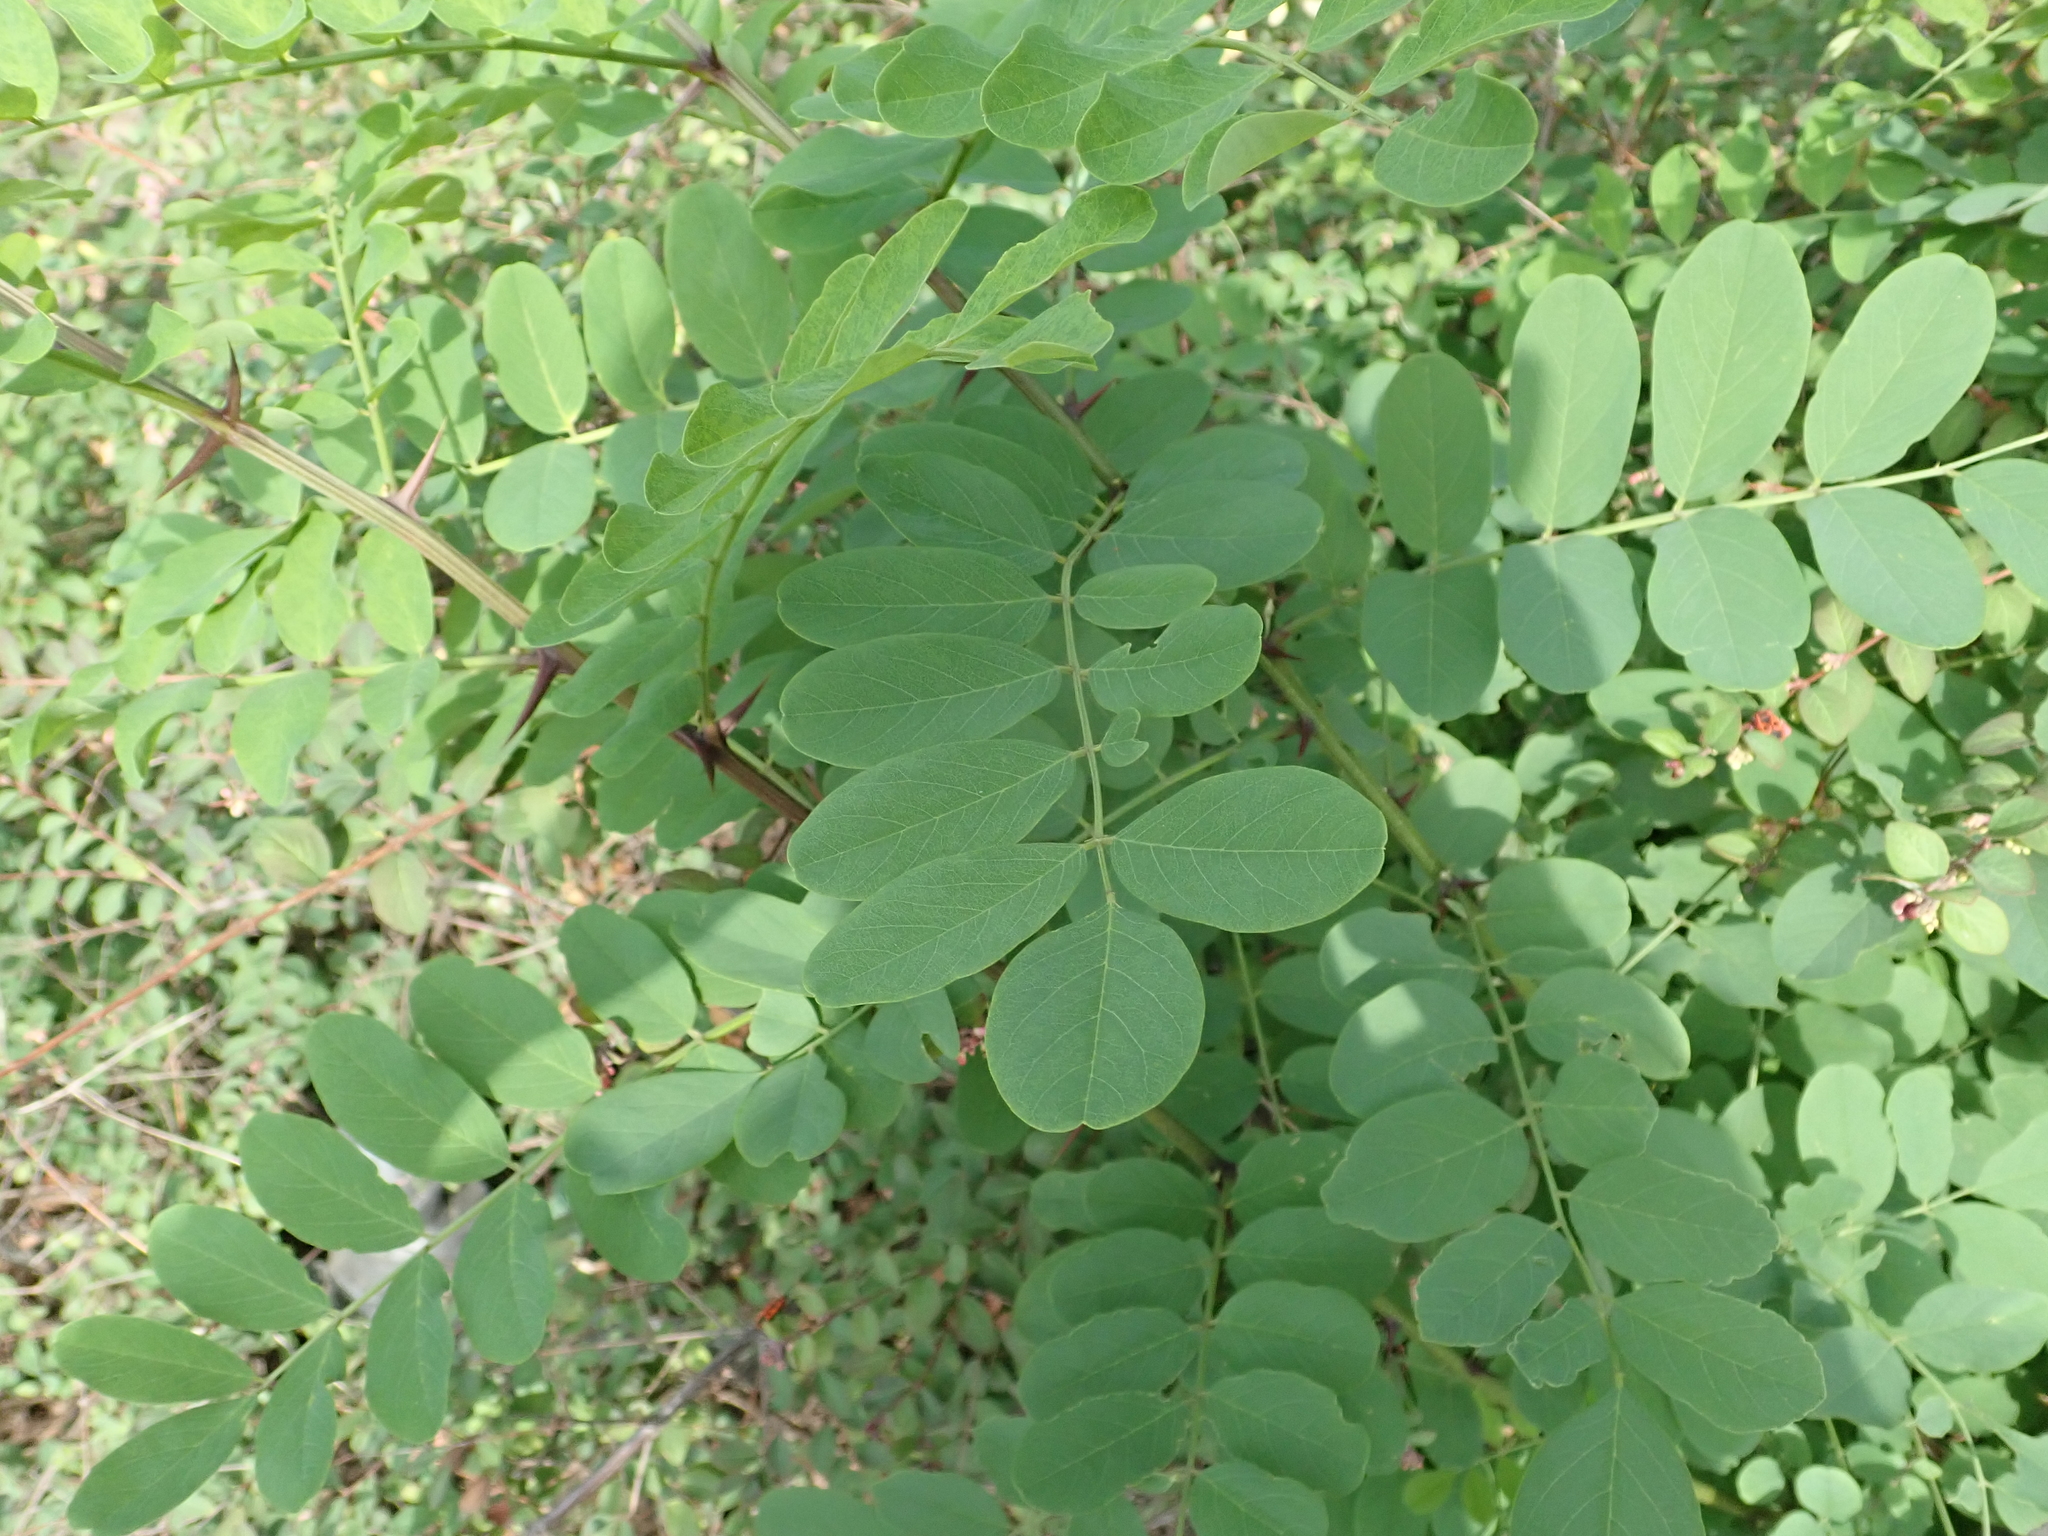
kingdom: Plantae
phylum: Tracheophyta
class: Magnoliopsida
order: Fabales
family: Fabaceae
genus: Robinia
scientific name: Robinia pseudoacacia
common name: Black locust
